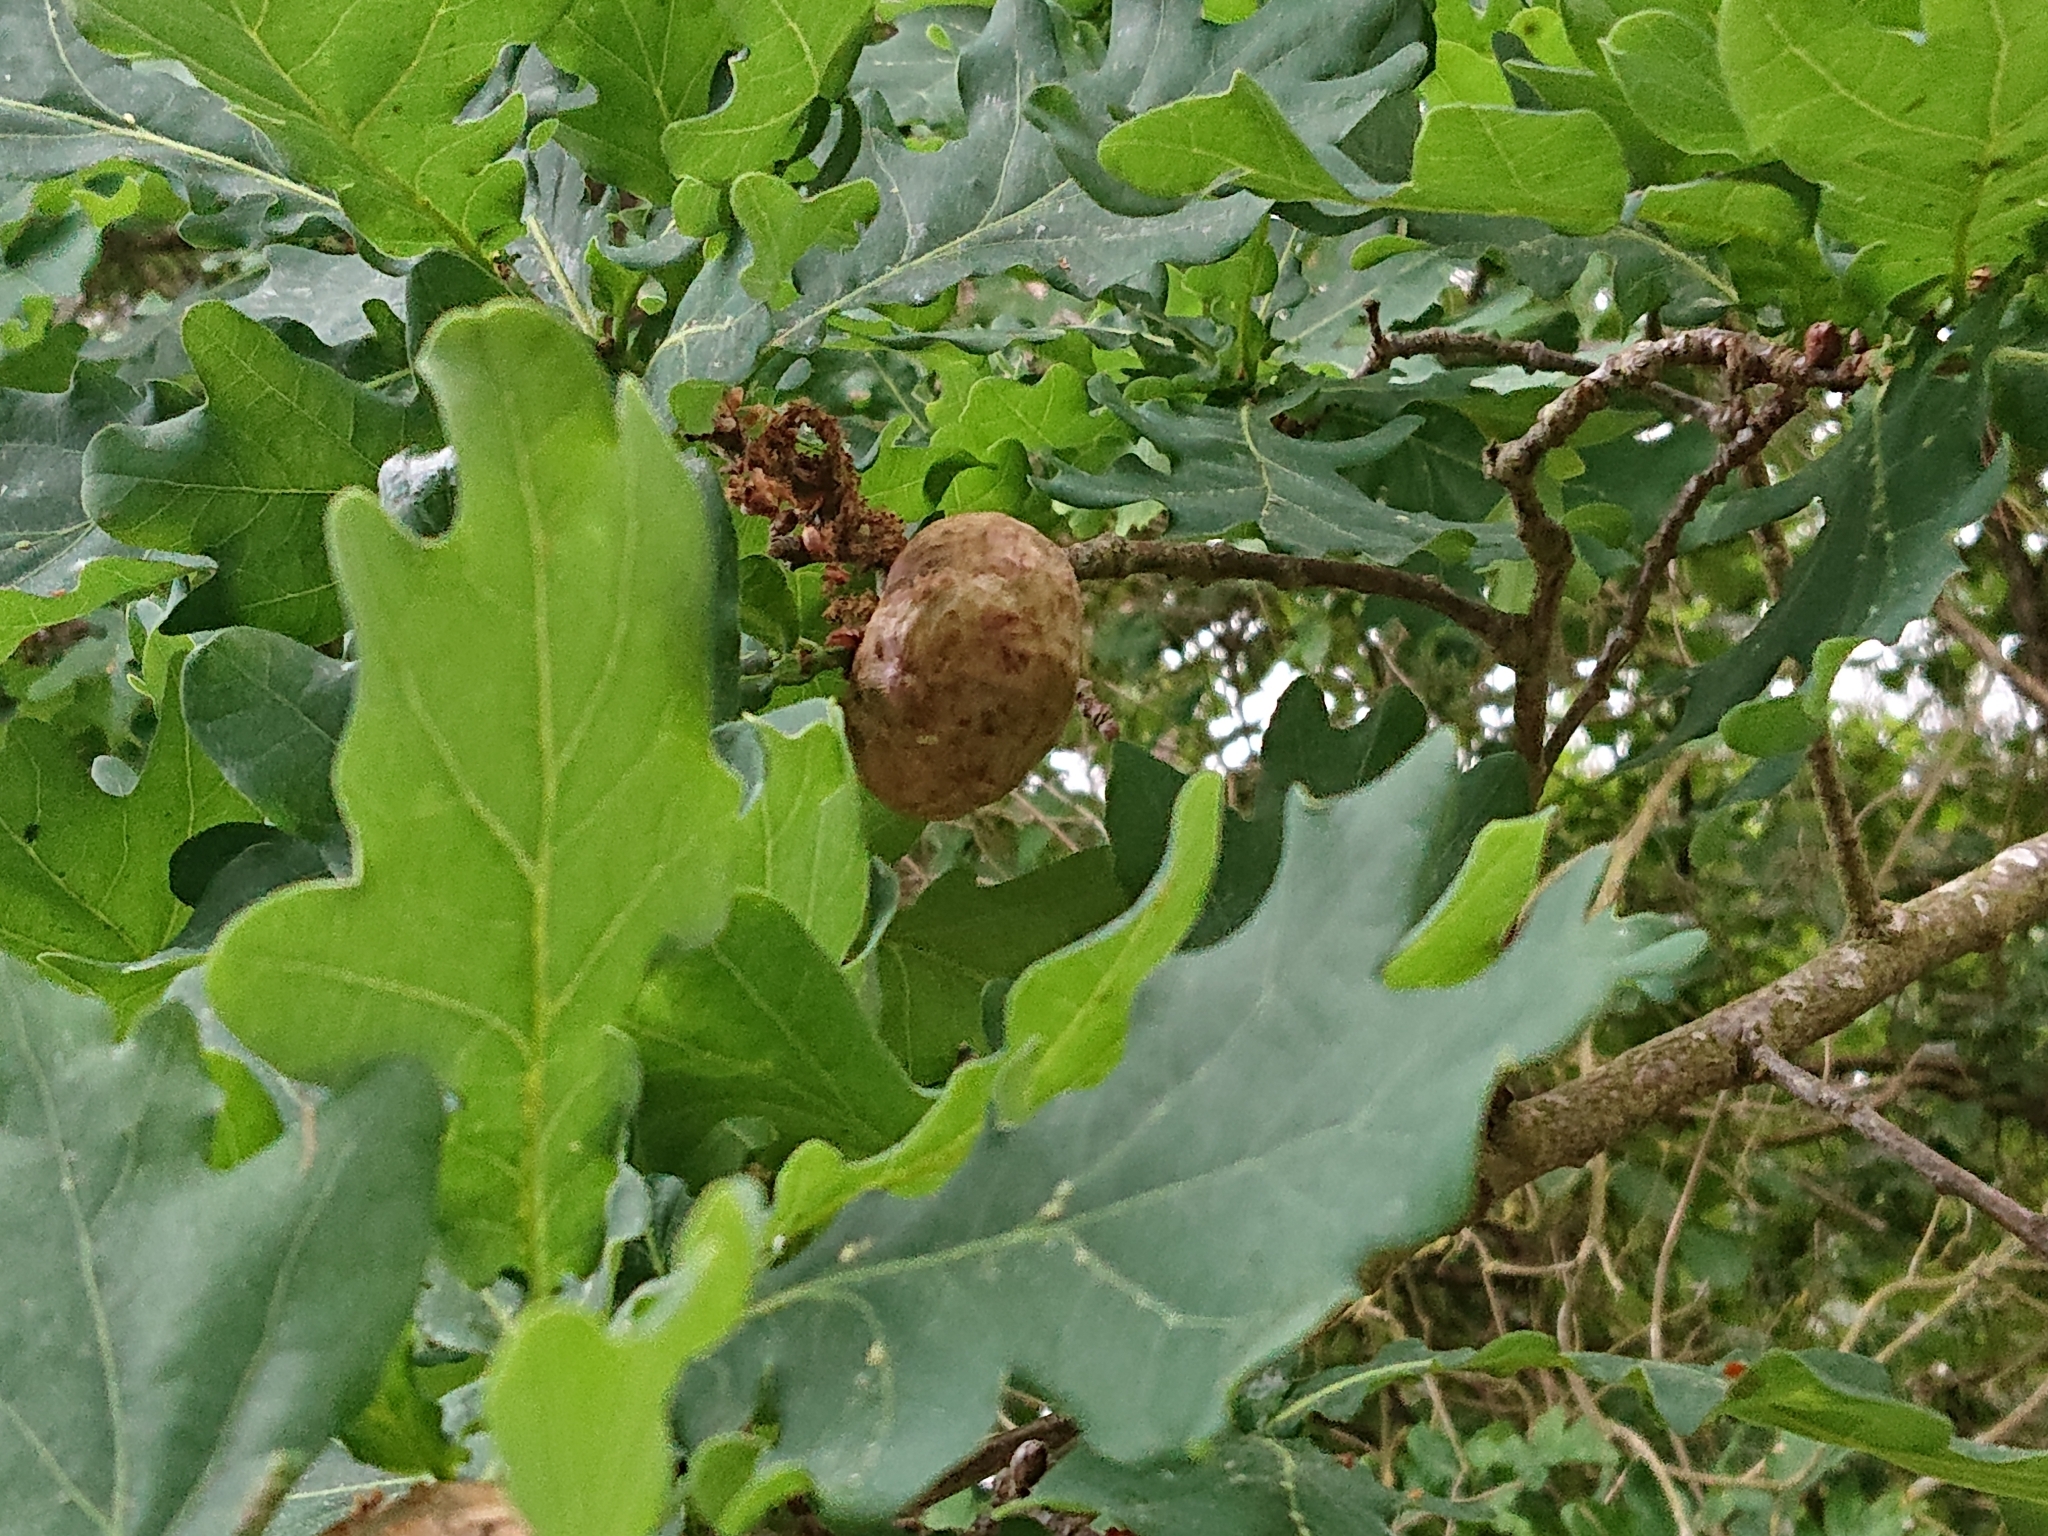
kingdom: Animalia
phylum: Arthropoda
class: Insecta
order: Hymenoptera
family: Cynipidae
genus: Biorhiza
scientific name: Biorhiza pallida
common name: Oak apple
